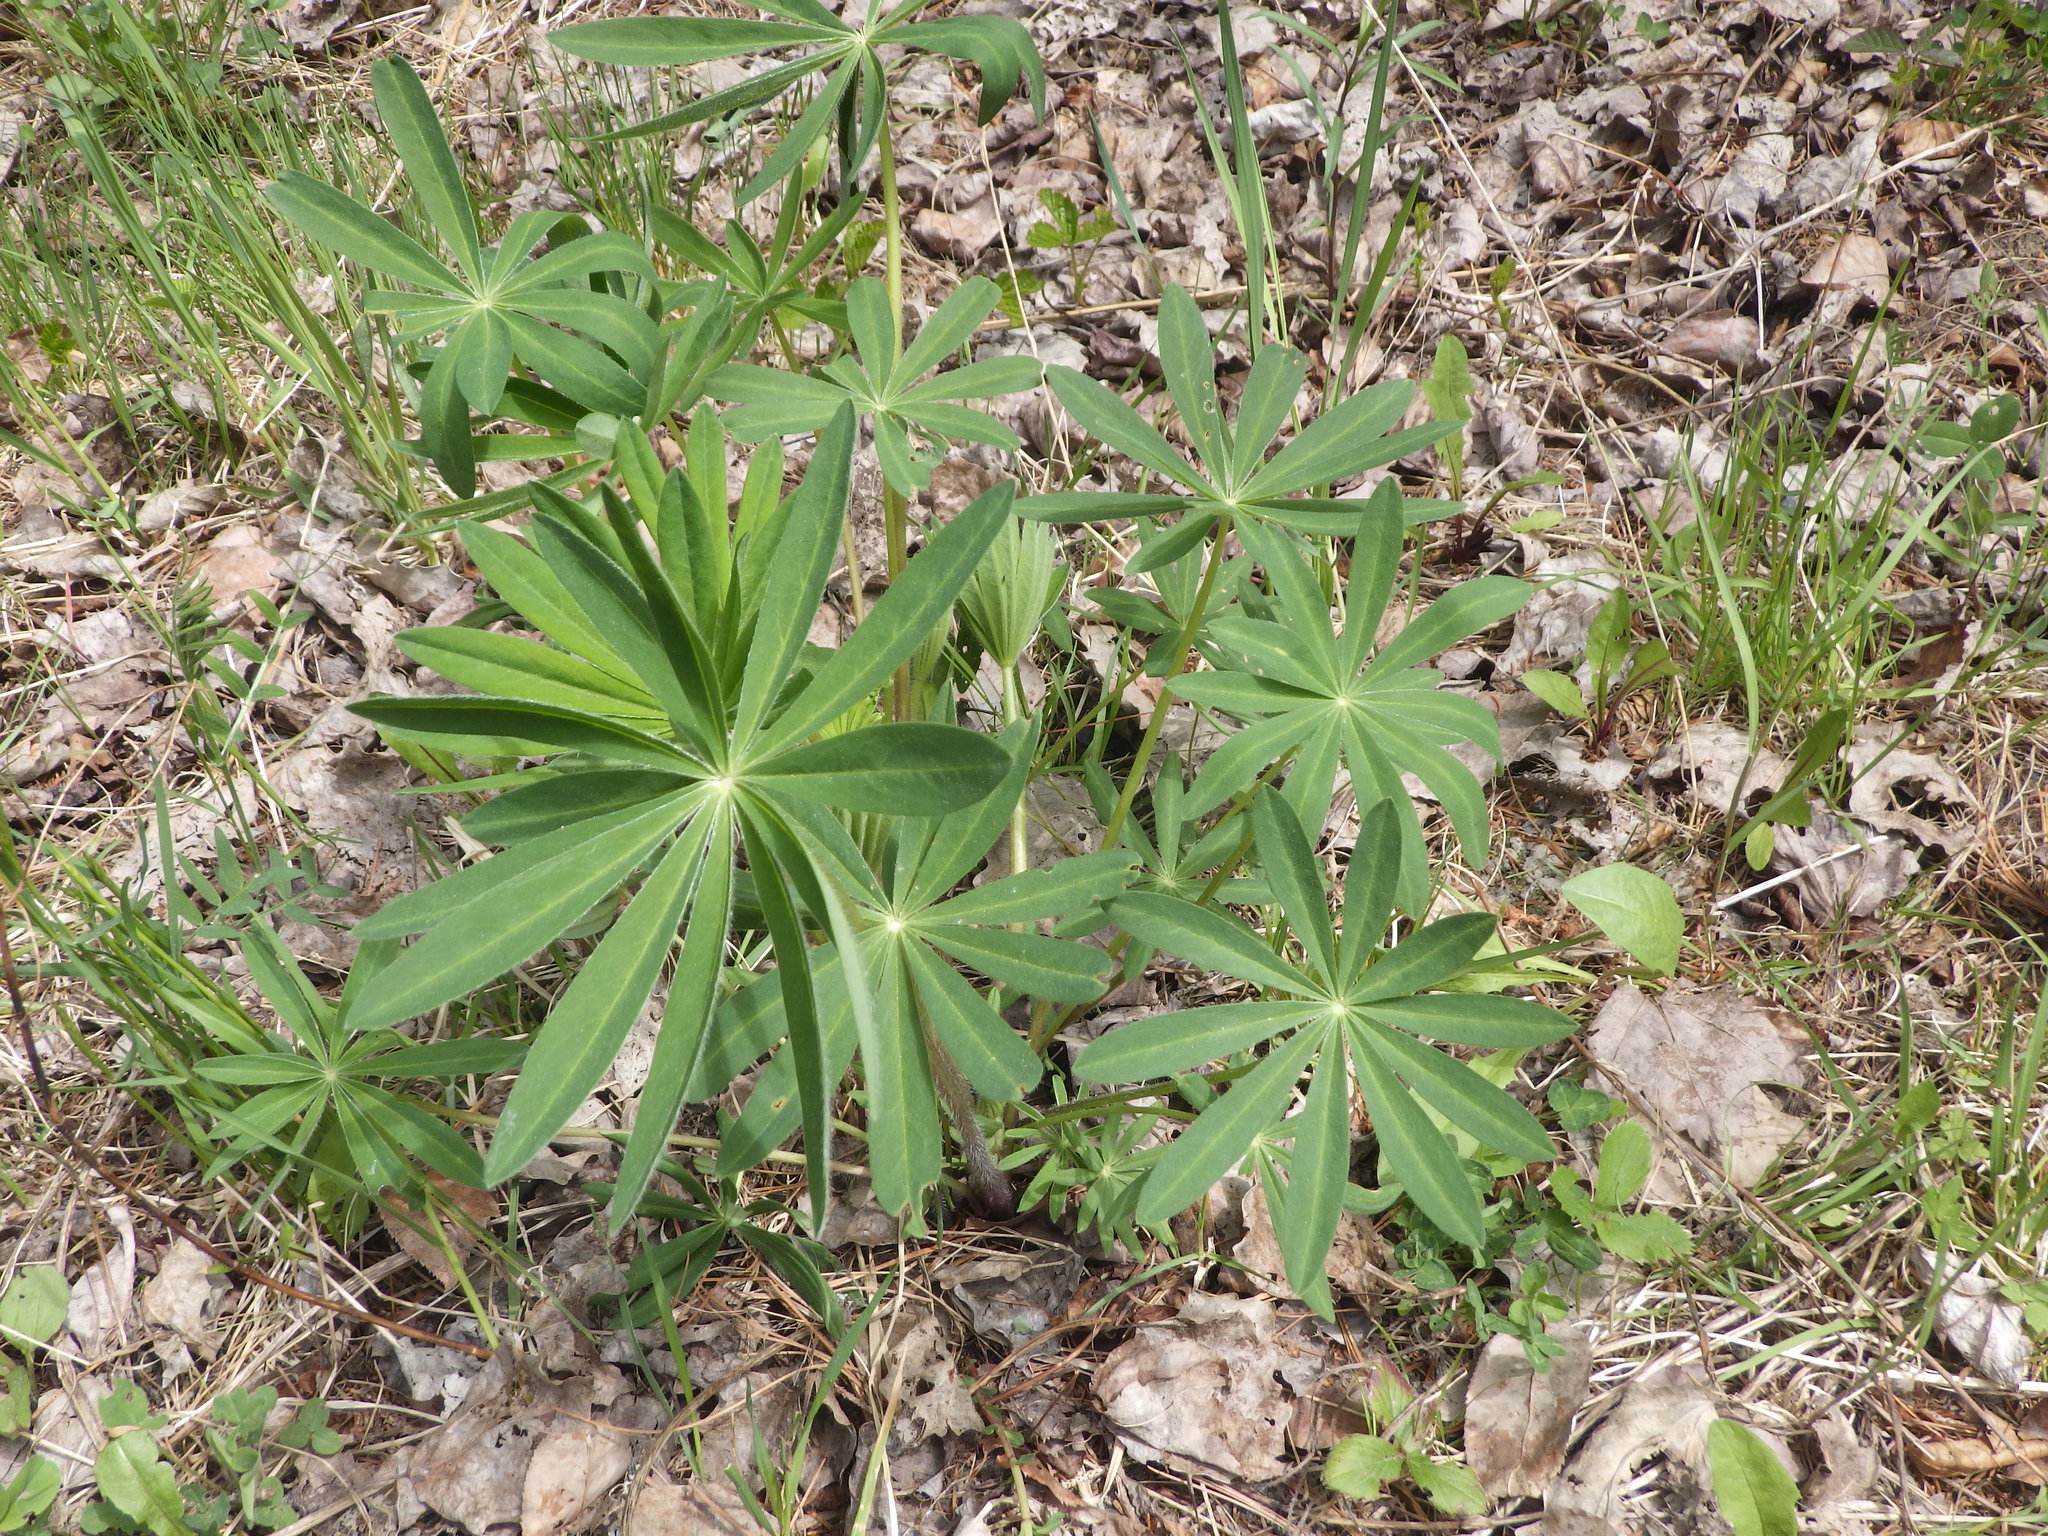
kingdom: Plantae
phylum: Tracheophyta
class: Magnoliopsida
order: Fabales
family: Fabaceae
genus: Lupinus
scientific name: Lupinus polyphyllus
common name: Garden lupin
